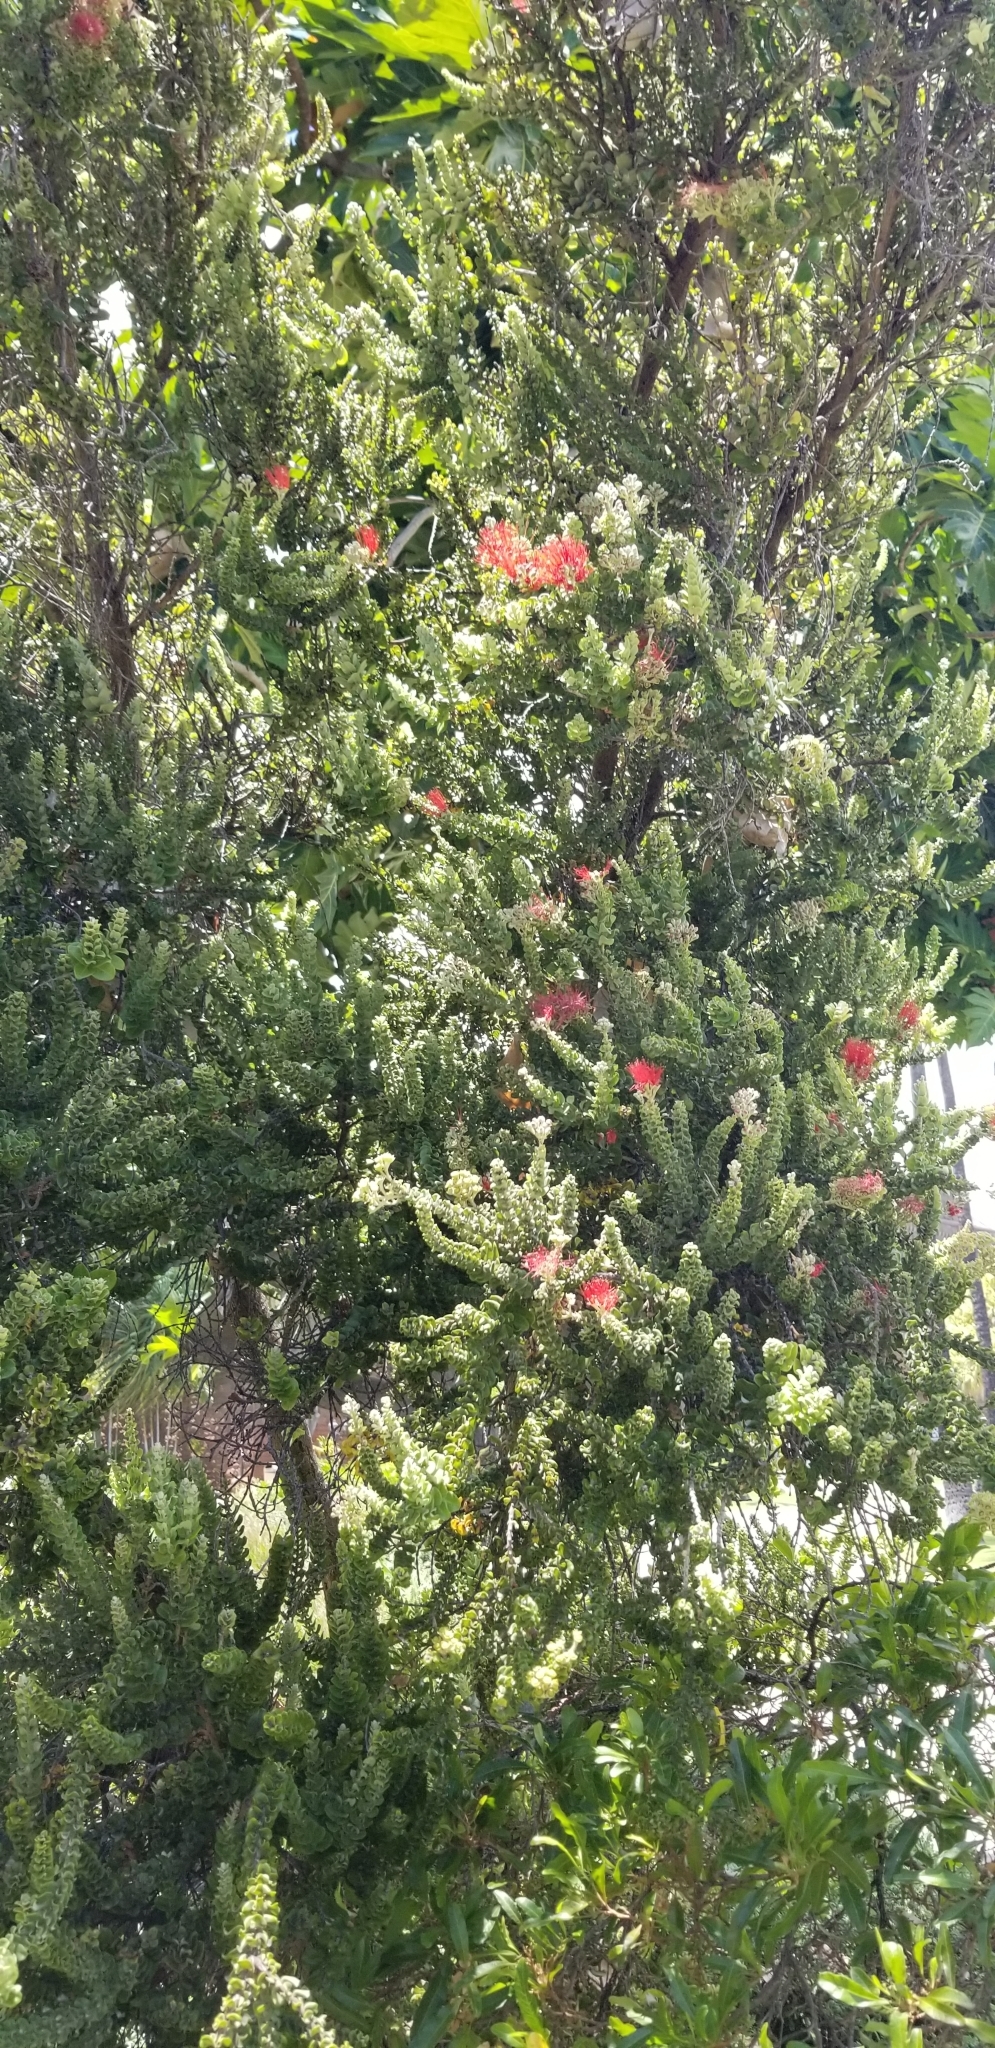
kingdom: Plantae
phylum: Tracheophyta
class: Magnoliopsida
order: Myrtales
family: Myrtaceae
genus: Metrosideros
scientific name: Metrosideros polymorpha
